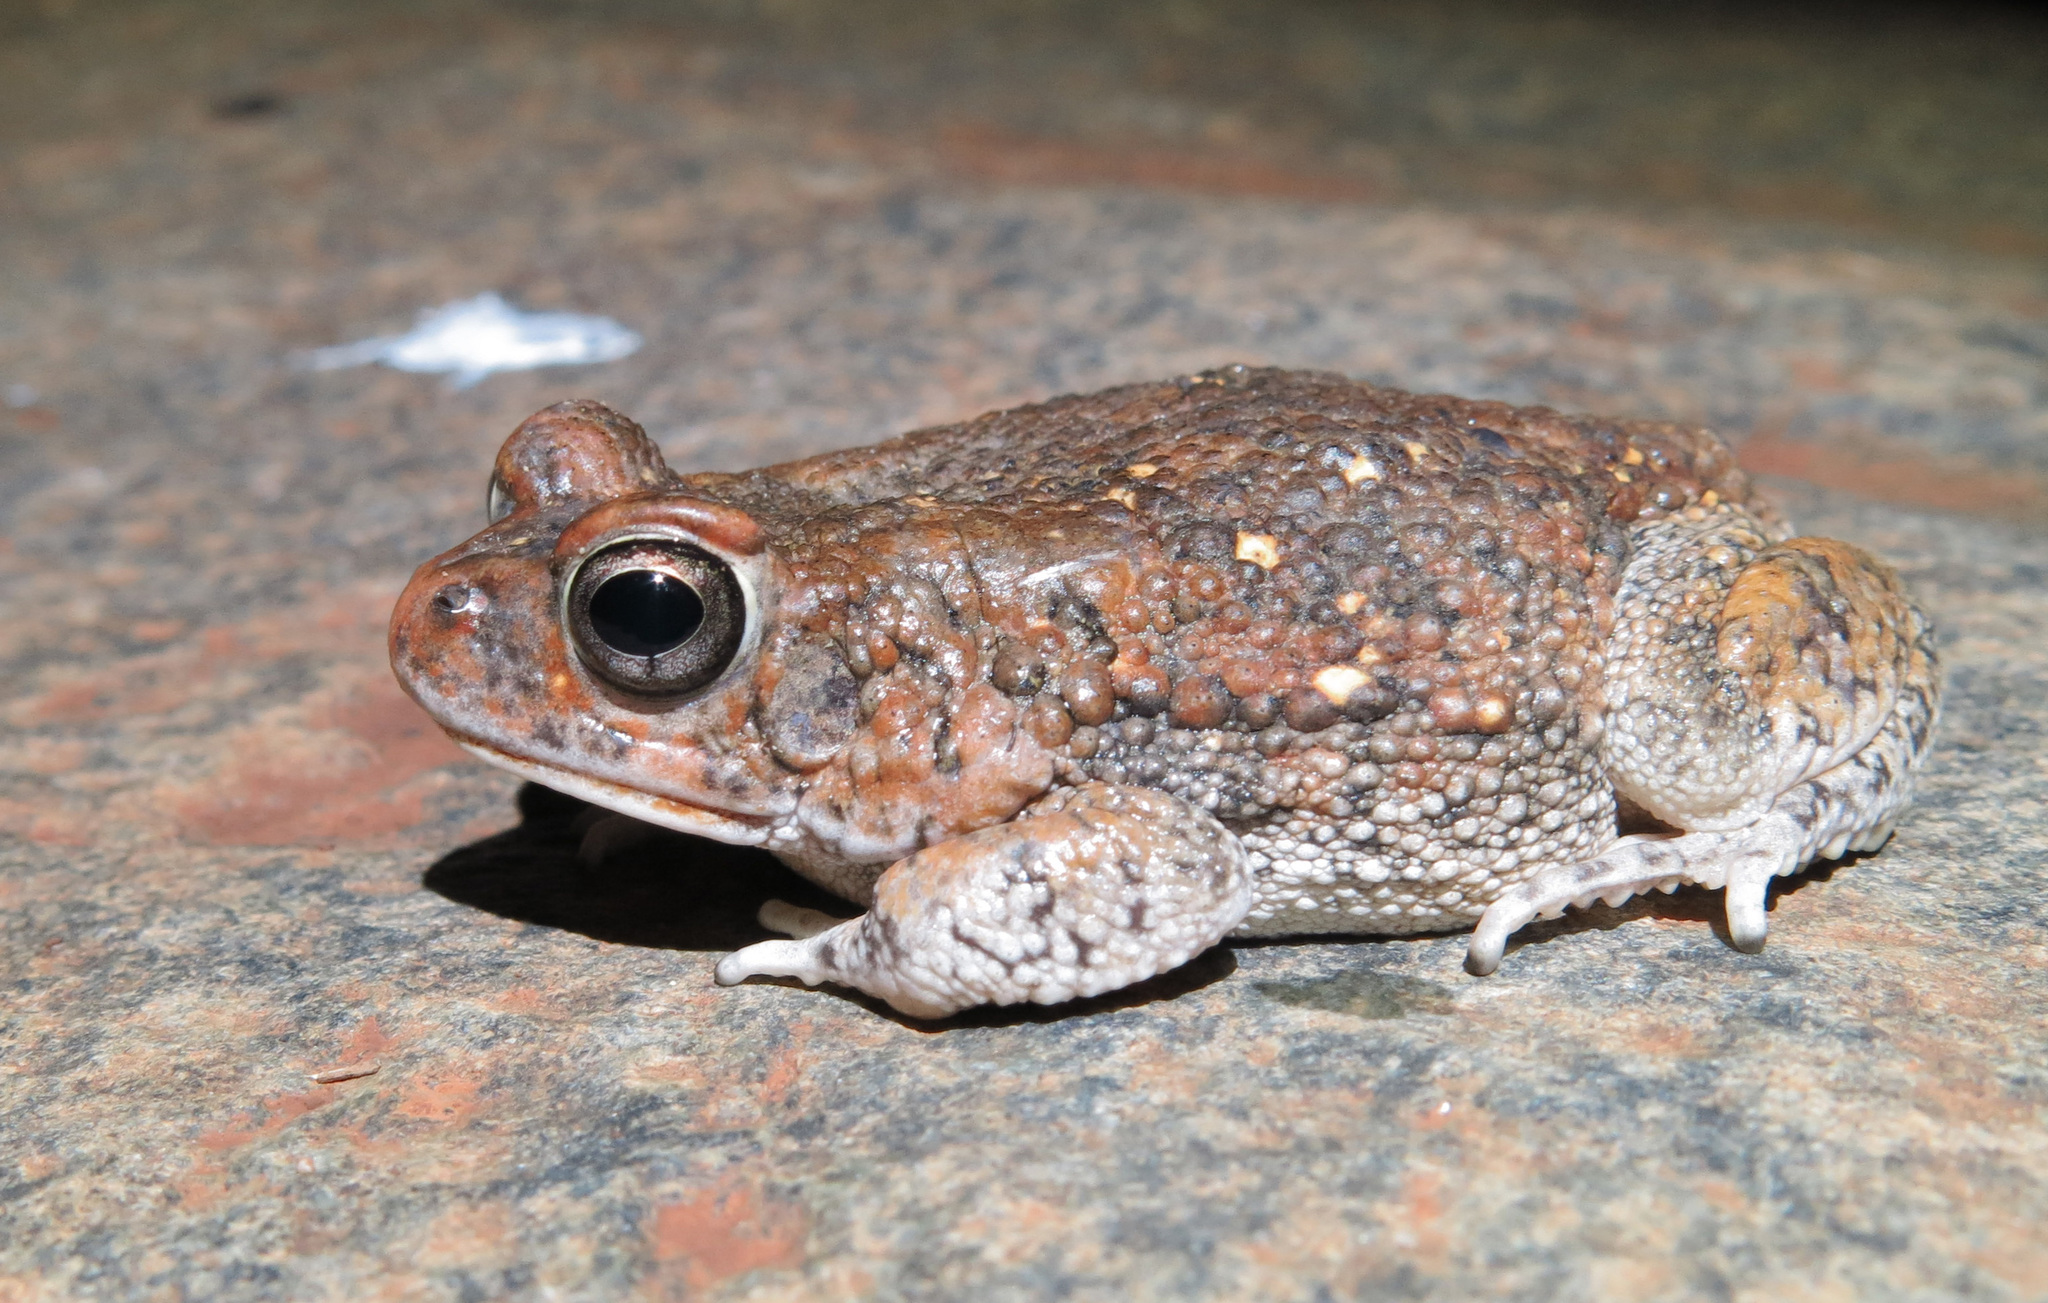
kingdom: Animalia
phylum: Chordata
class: Amphibia
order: Anura
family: Bufonidae
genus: Sclerophrys
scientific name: Sclerophrys pusilla
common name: Merten's striped toad
